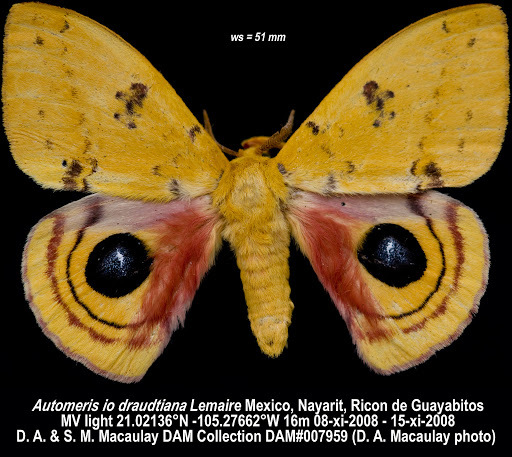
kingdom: Animalia
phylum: Arthropoda
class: Insecta
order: Lepidoptera
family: Saturniidae
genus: Automeris
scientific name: Automeris io
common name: Io moth
